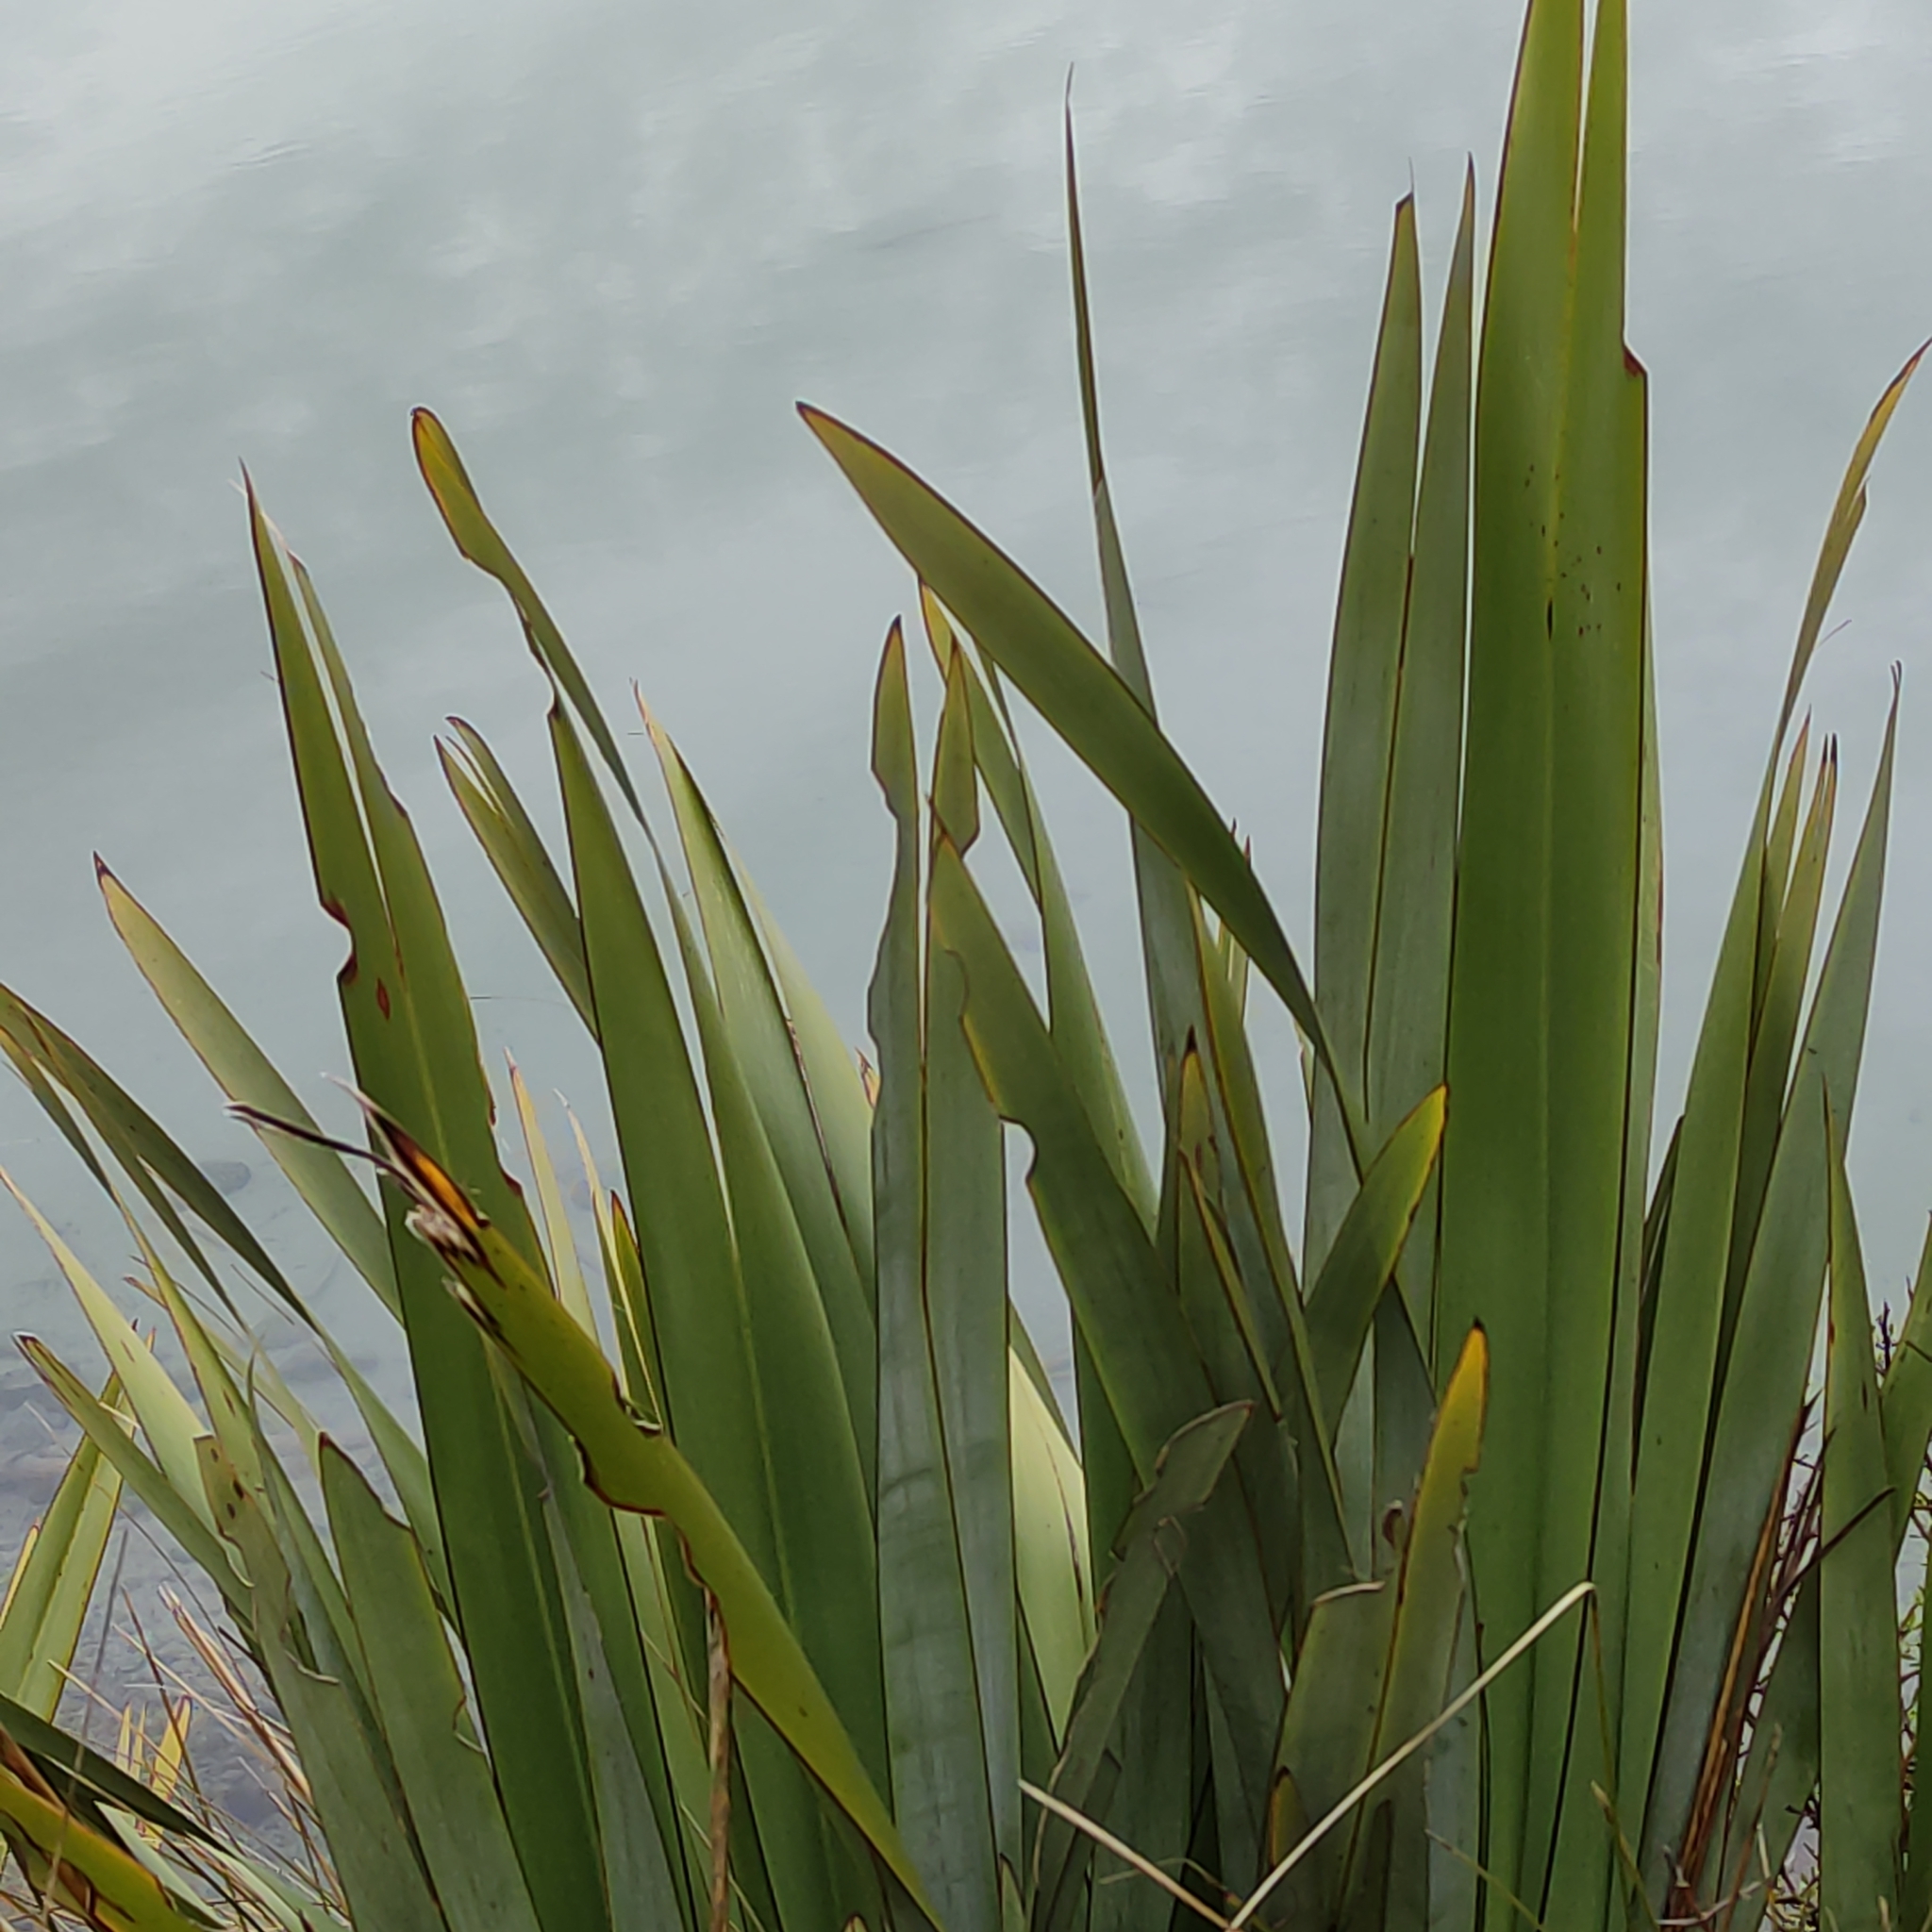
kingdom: Plantae
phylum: Tracheophyta
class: Liliopsida
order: Asparagales
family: Asphodelaceae
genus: Phormium
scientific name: Phormium tenax
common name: New zealand flax
